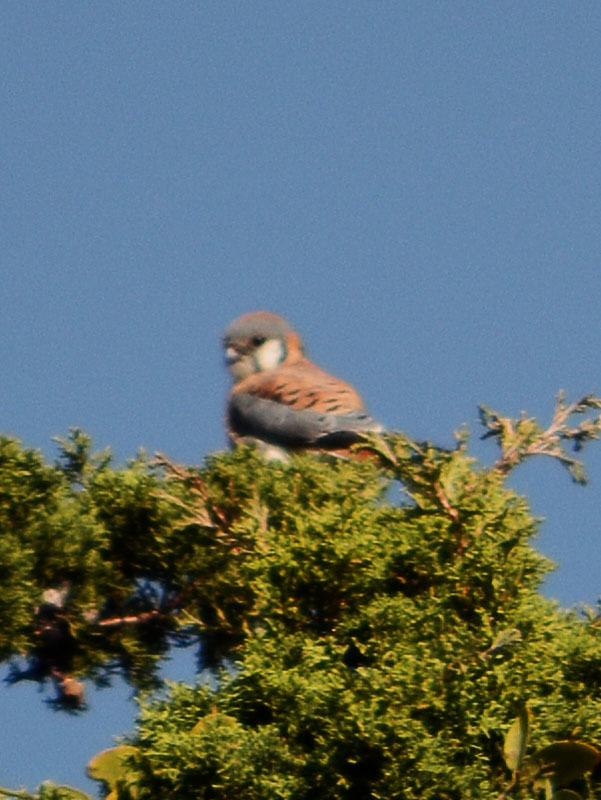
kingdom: Animalia
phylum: Chordata
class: Aves
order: Falconiformes
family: Falconidae
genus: Falco
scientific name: Falco sparverius
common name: American kestrel
